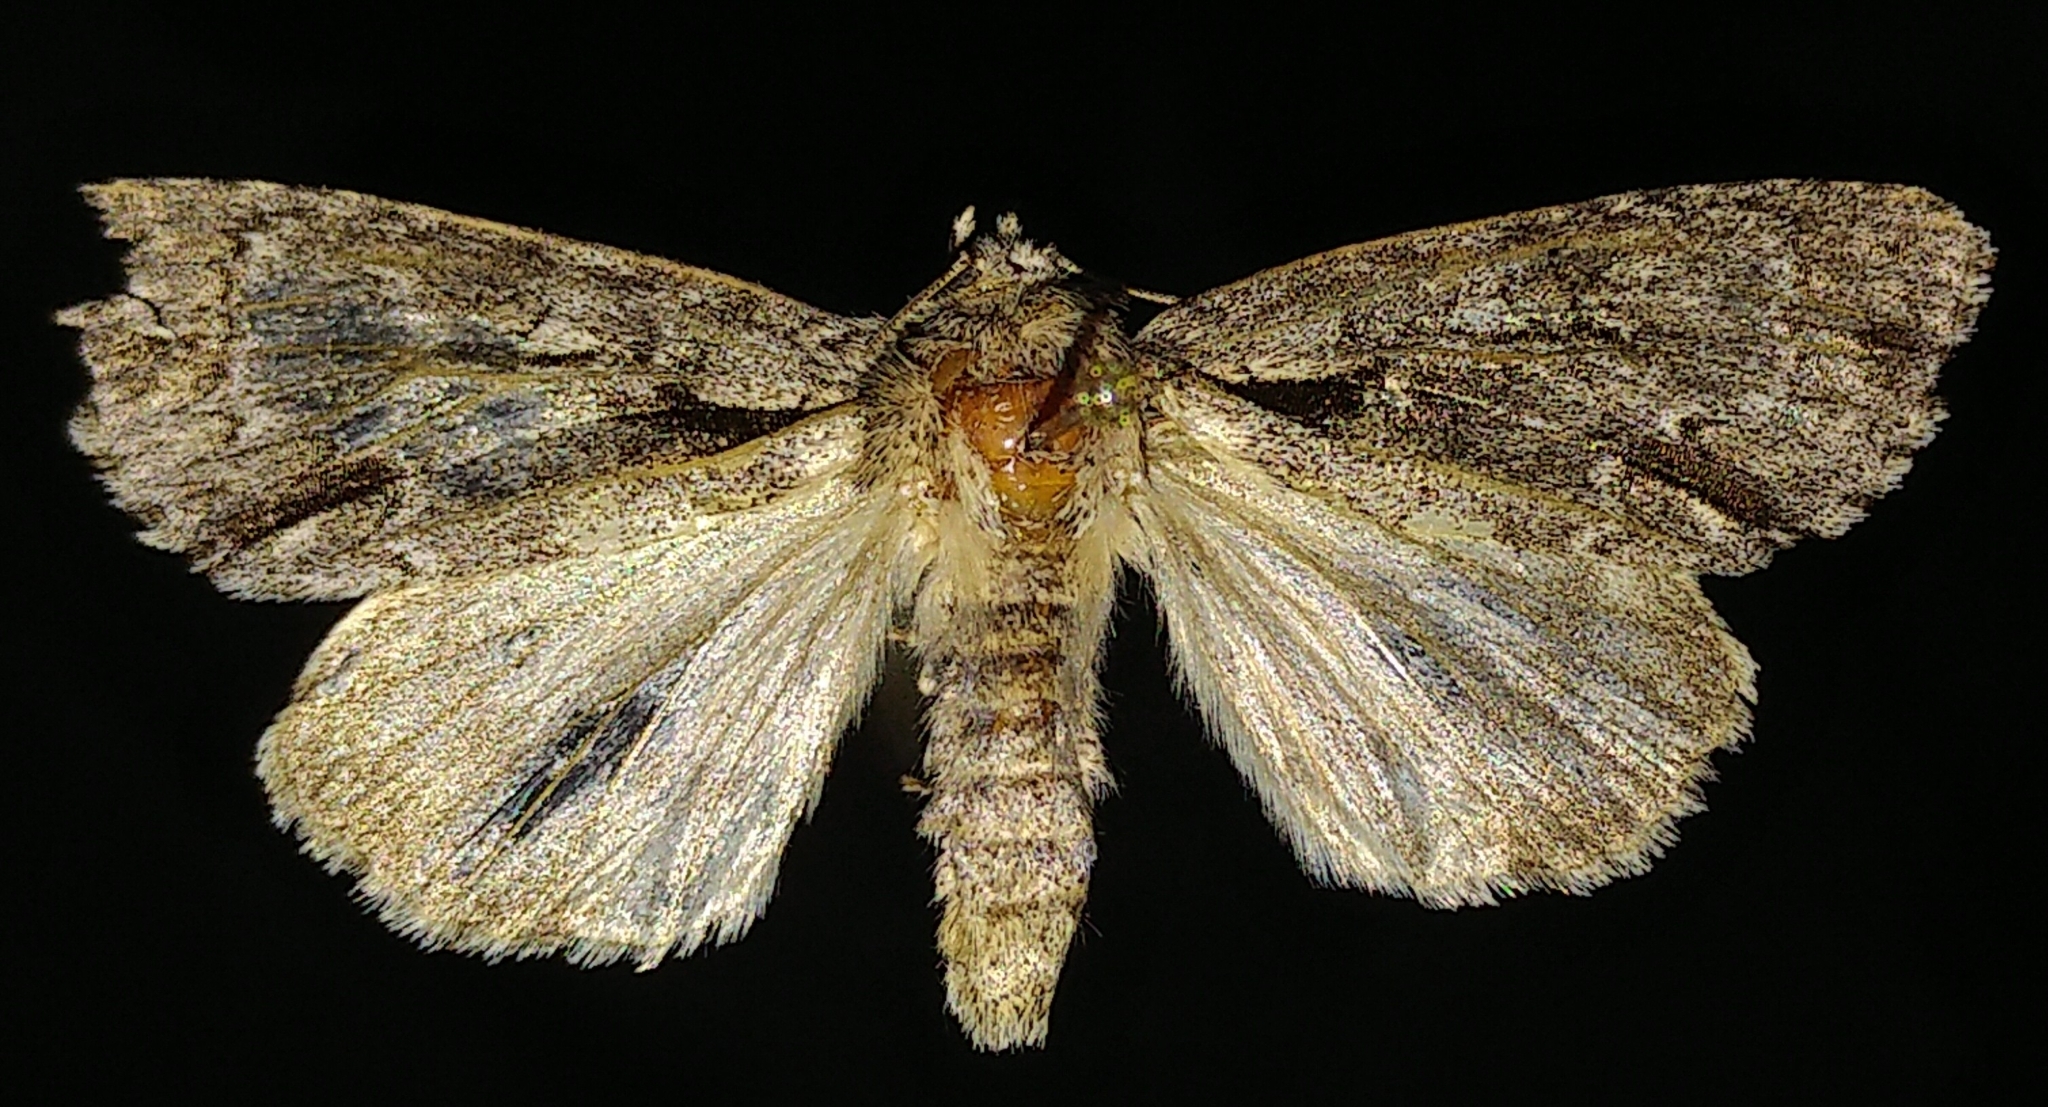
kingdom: Animalia
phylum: Arthropoda
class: Insecta
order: Lepidoptera
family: Noctuidae
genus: Acronicta
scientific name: Acronicta hasta
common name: Cherry dagger
